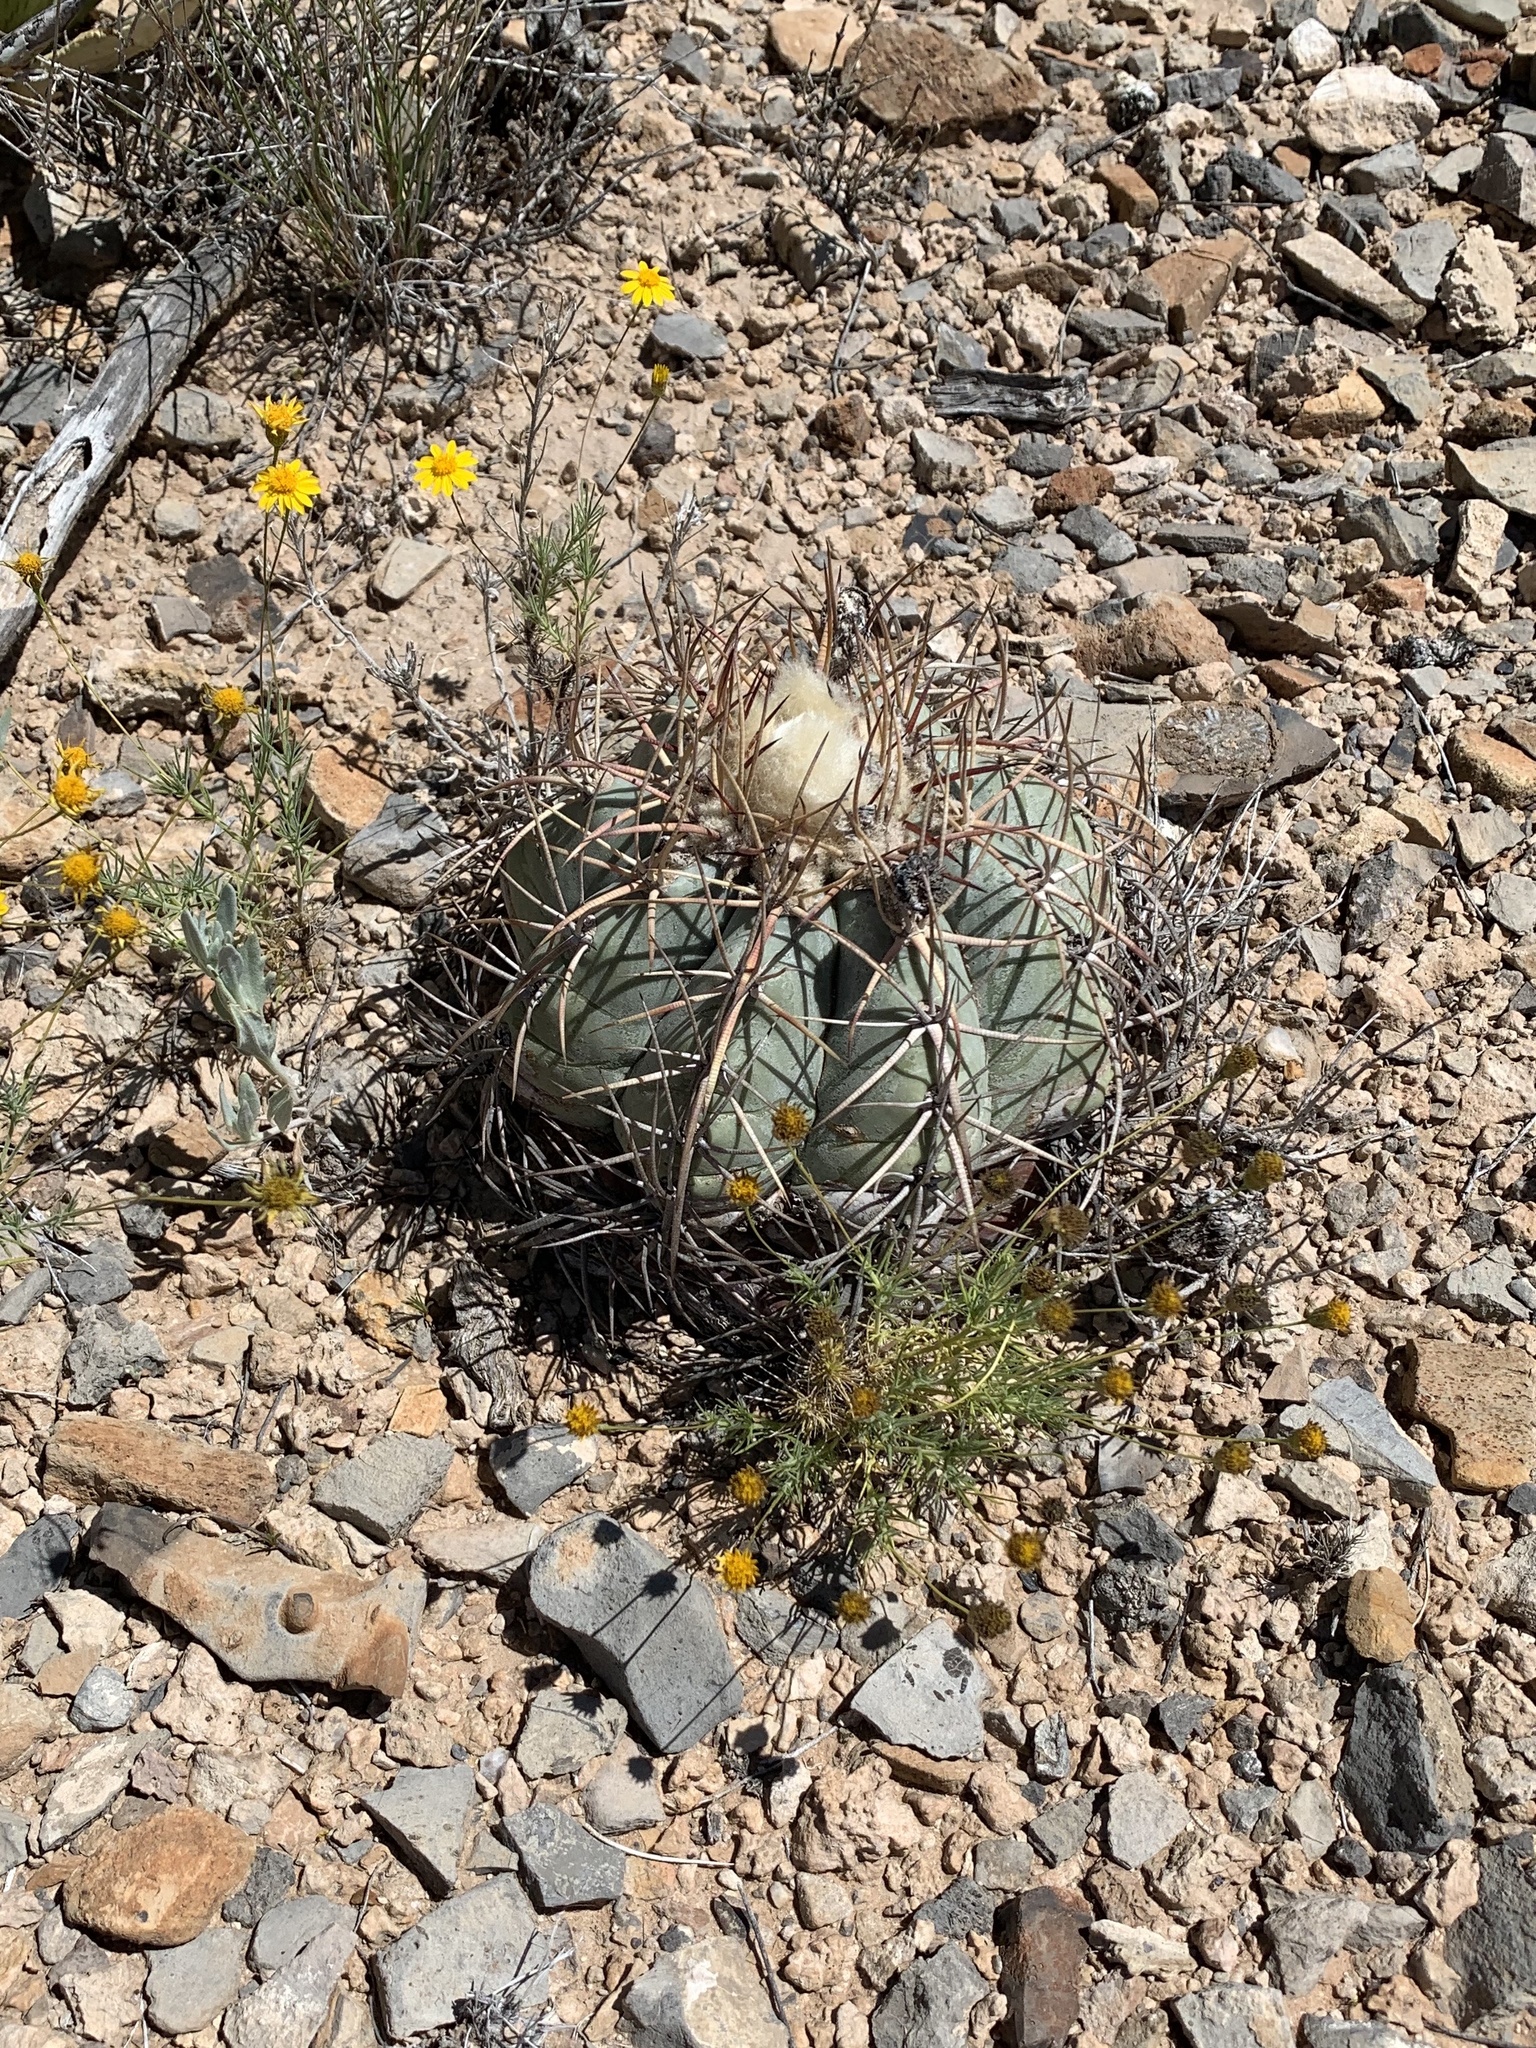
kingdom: Plantae
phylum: Tracheophyta
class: Magnoliopsida
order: Caryophyllales
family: Cactaceae
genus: Echinocactus
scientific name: Echinocactus horizonthalonius
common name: Devilshead
